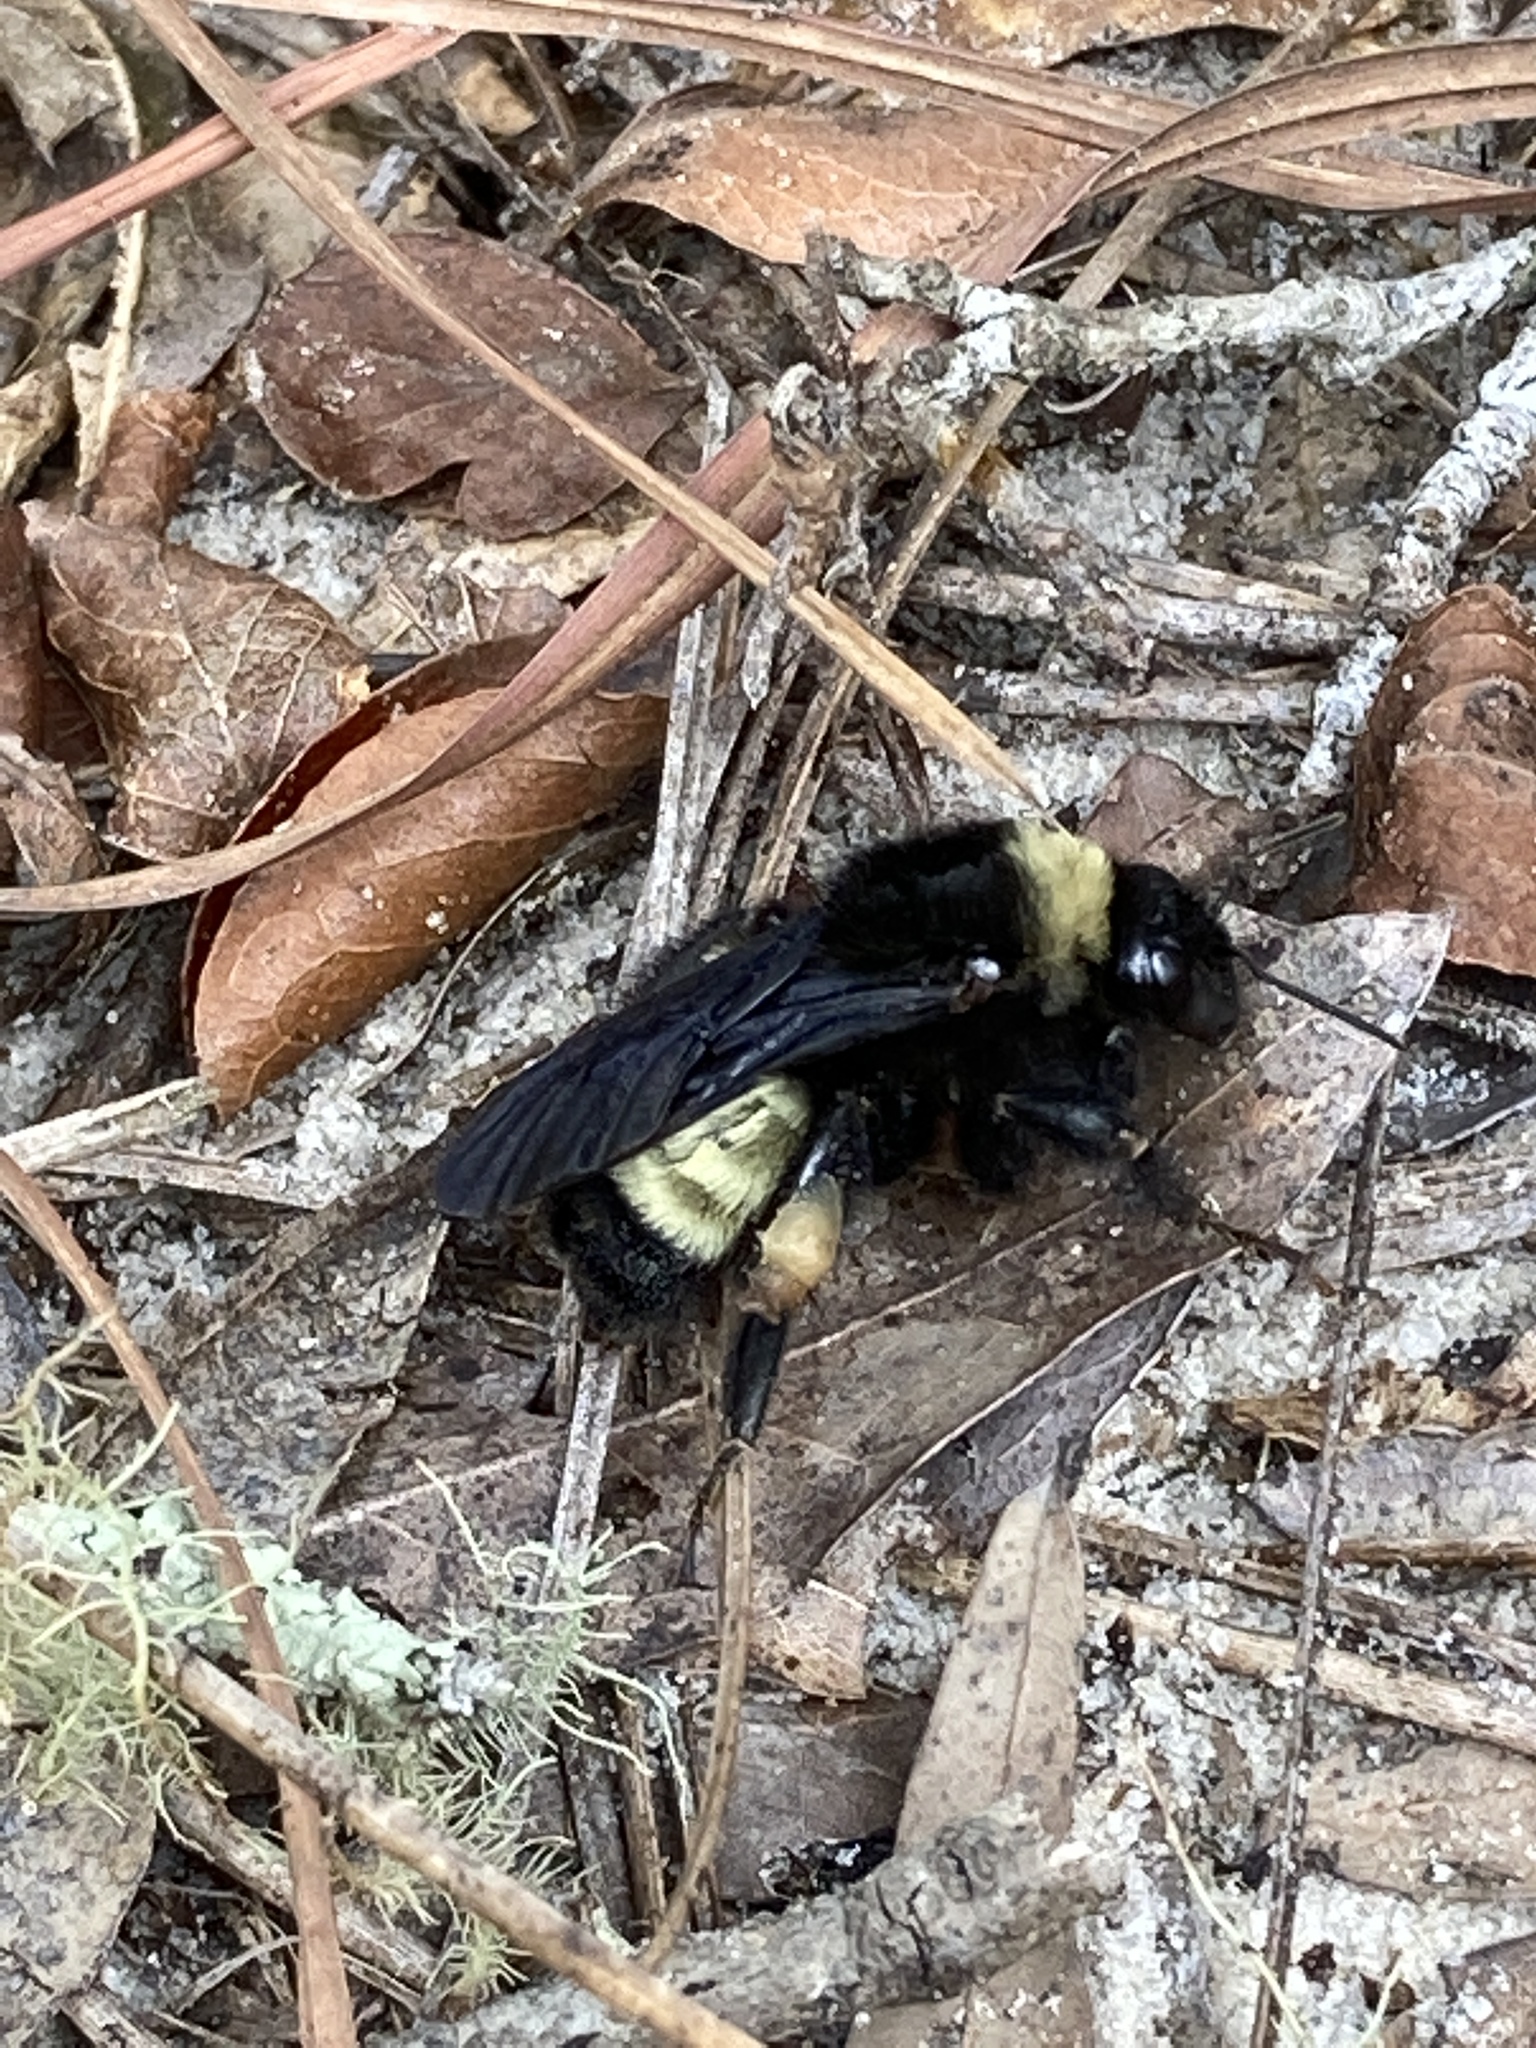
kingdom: Animalia
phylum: Arthropoda
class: Insecta
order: Hymenoptera
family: Apidae
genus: Bombus
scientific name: Bombus pensylvanicus
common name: Bumble bee
